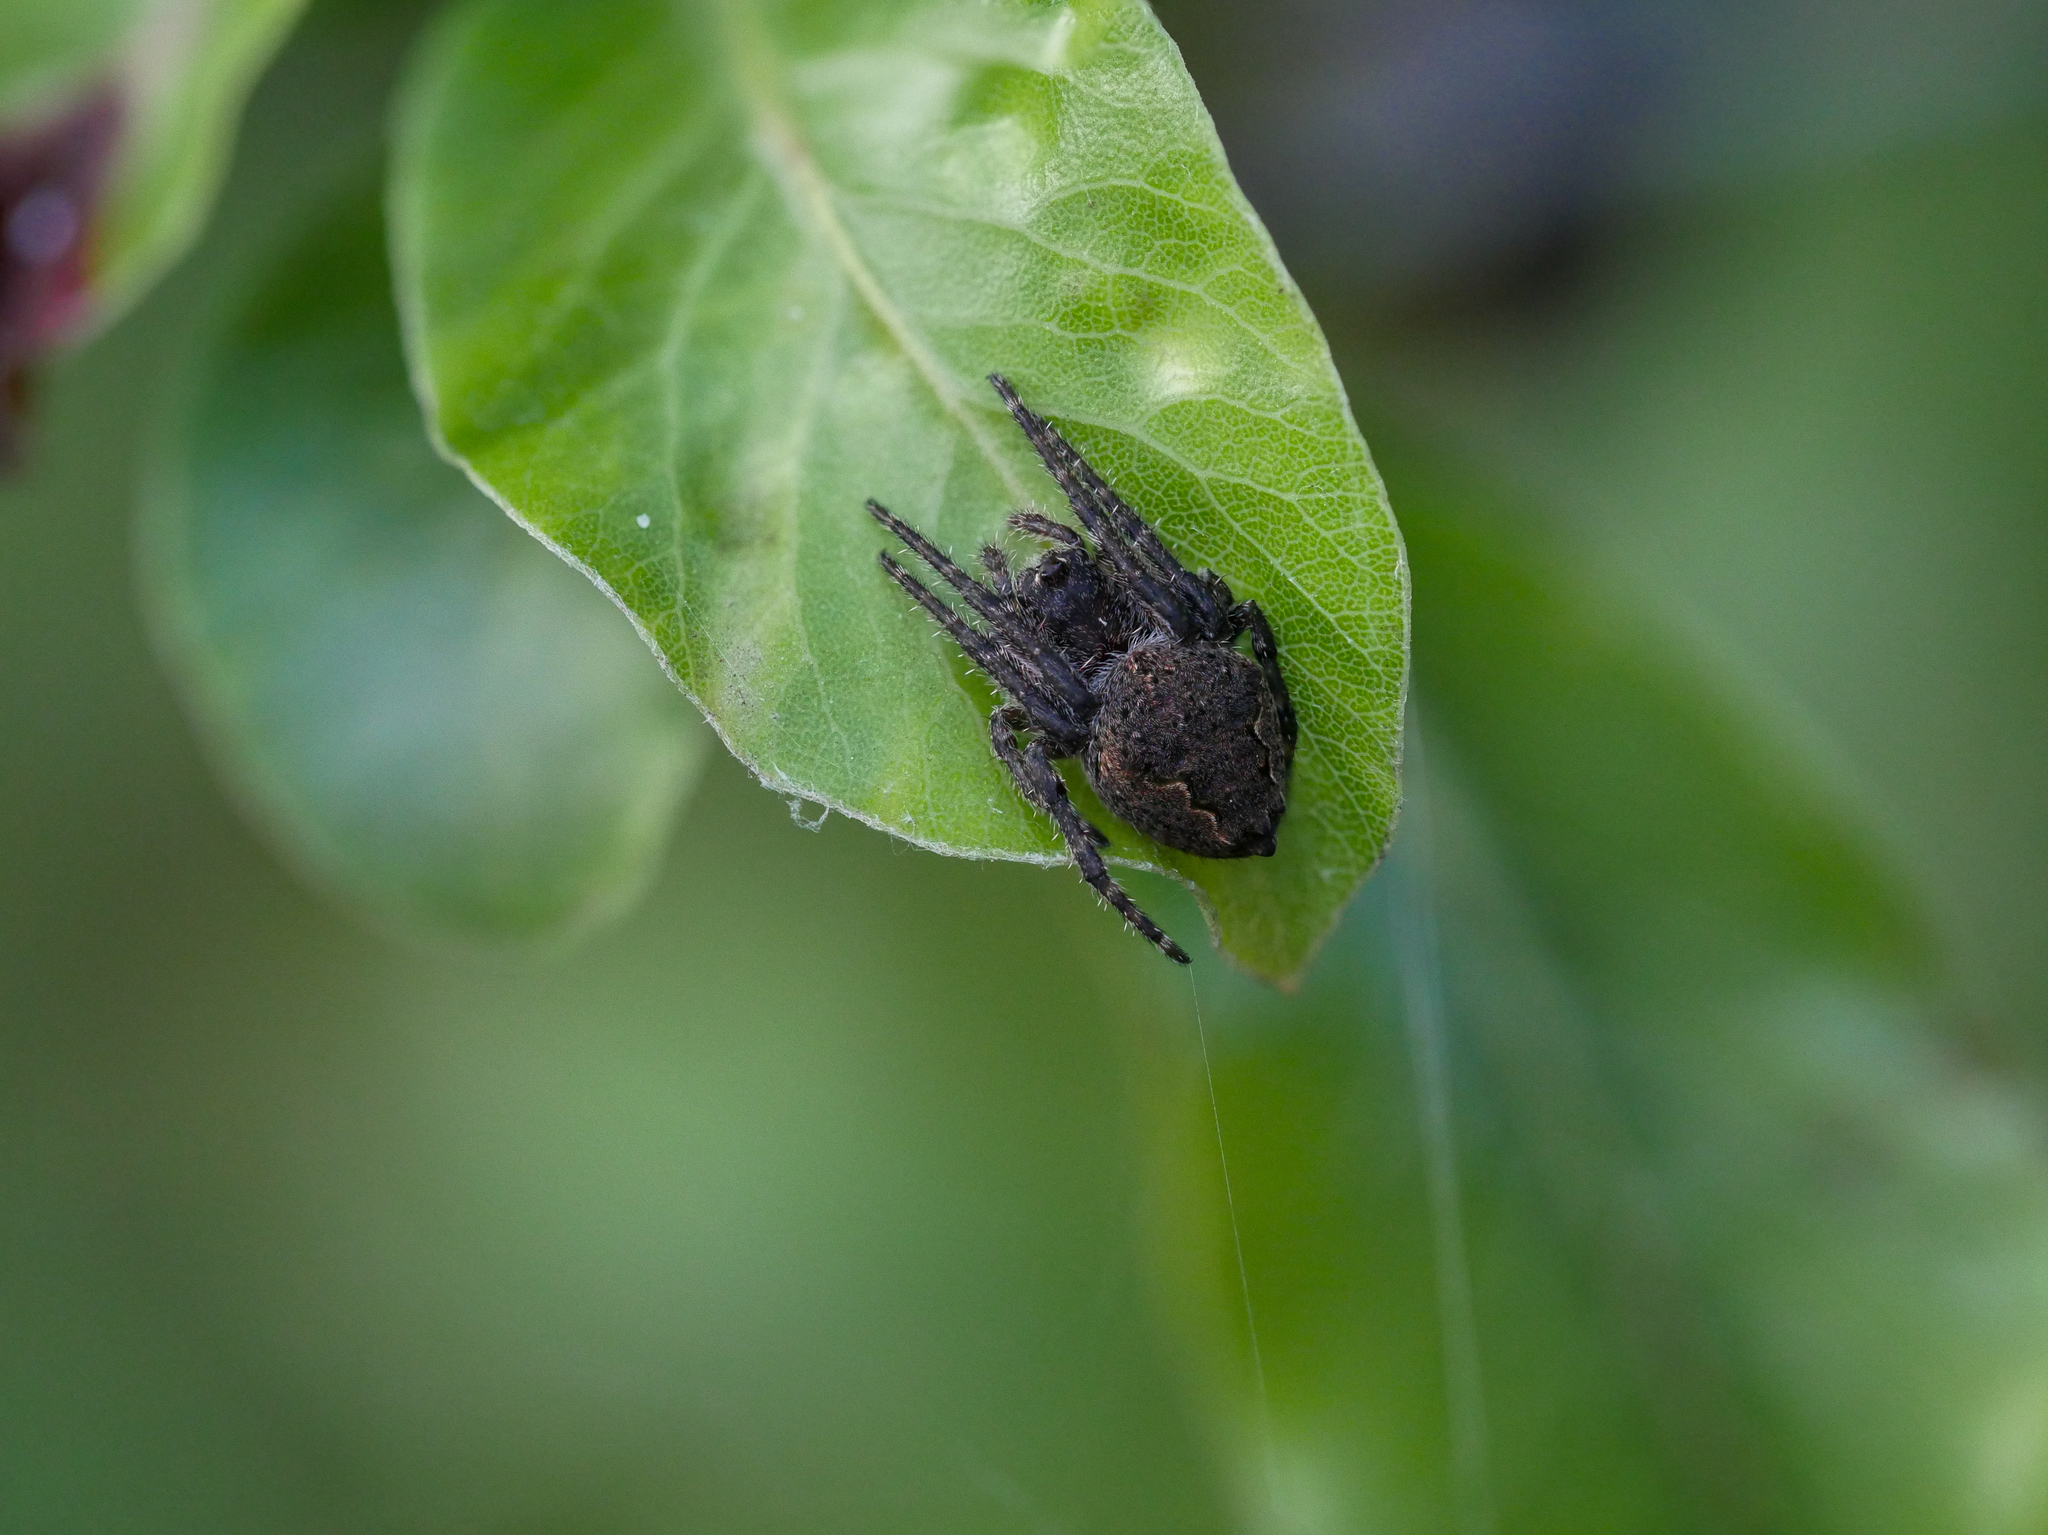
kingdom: Animalia
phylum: Arthropoda
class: Arachnida
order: Araneae
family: Araneidae
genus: Eriophora
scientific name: Eriophora pustulosa
